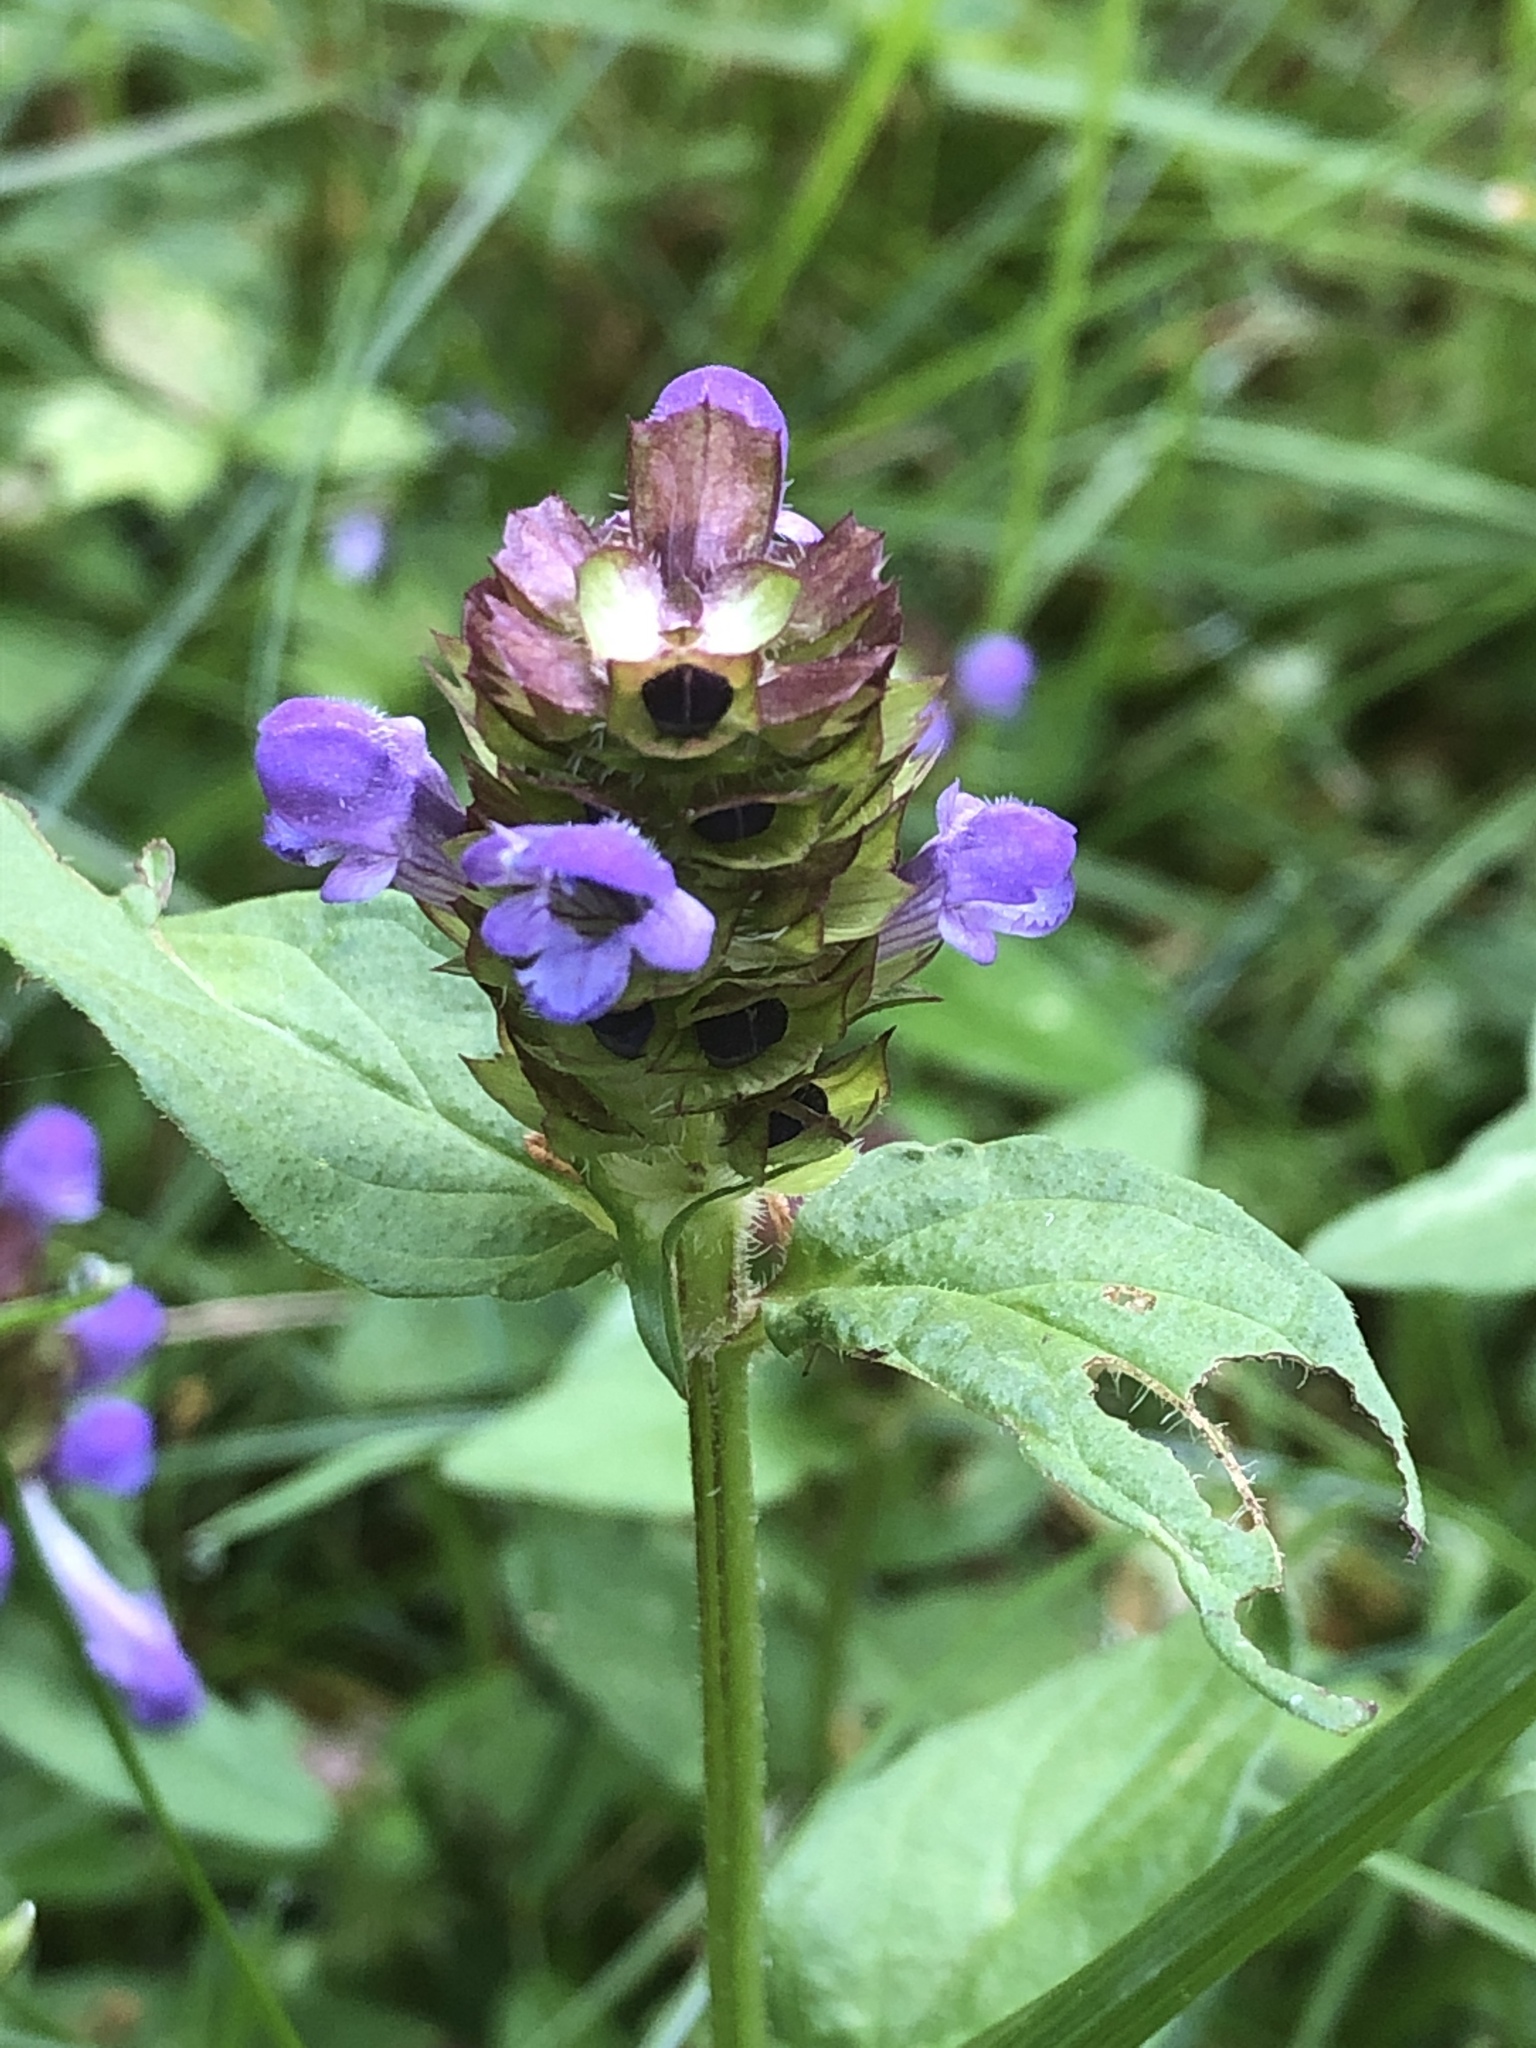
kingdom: Plantae
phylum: Tracheophyta
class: Magnoliopsida
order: Lamiales
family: Lamiaceae
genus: Prunella
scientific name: Prunella vulgaris
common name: Heal-all
